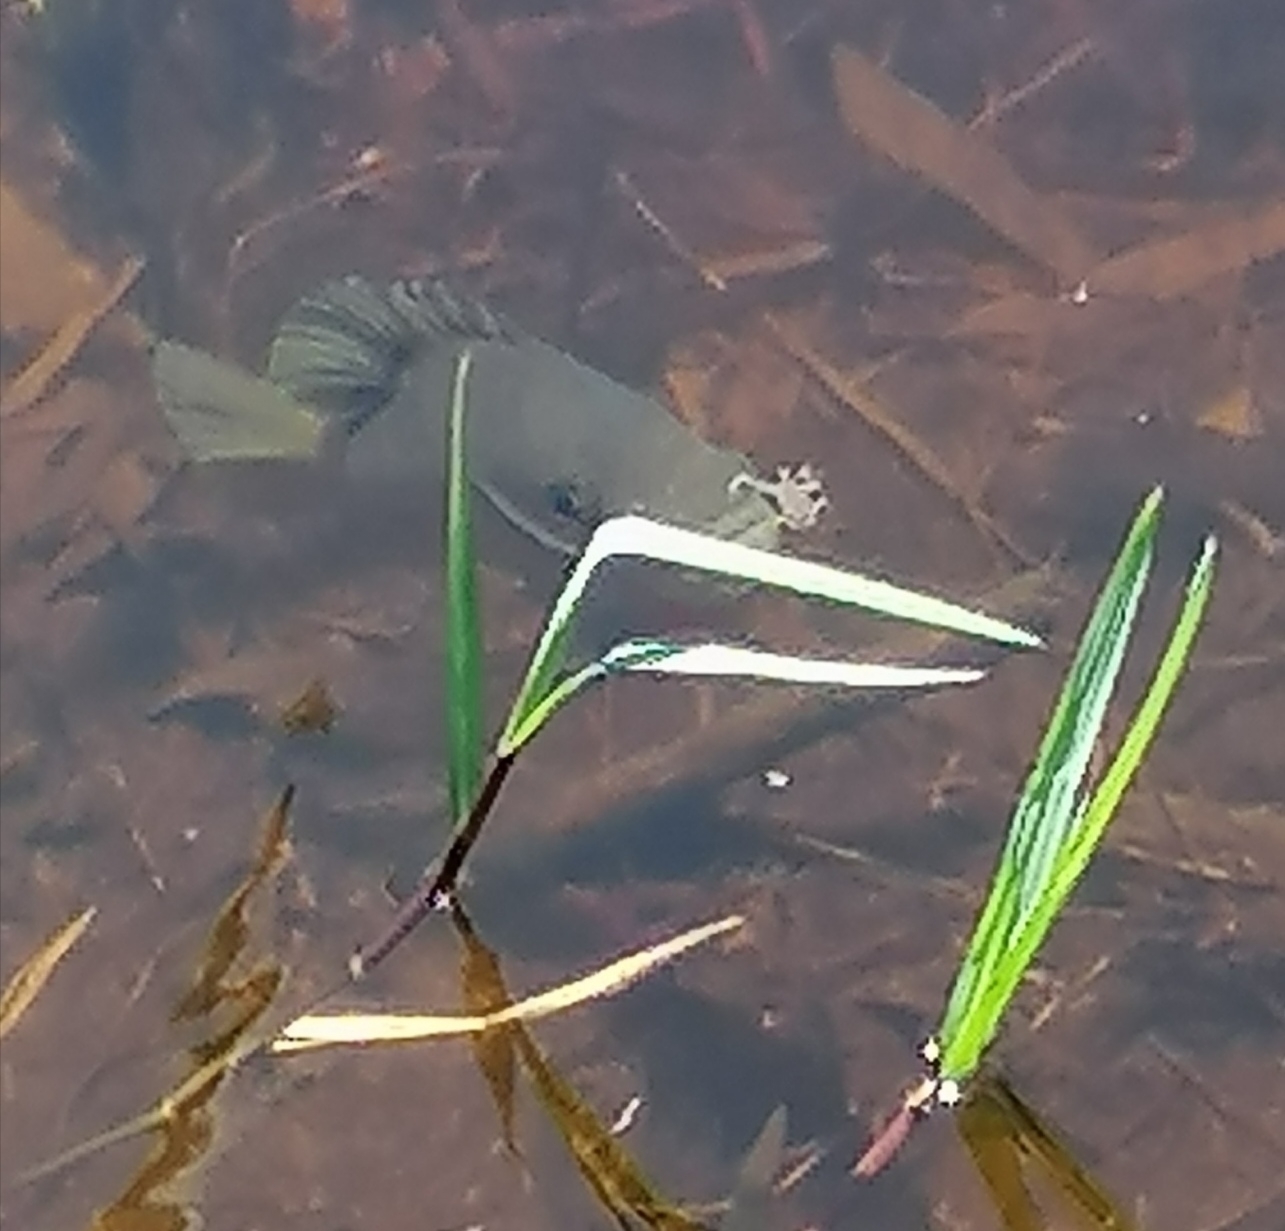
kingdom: Animalia
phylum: Chordata
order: Perciformes
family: Centrarchidae
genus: Lepomis
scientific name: Lepomis macrochirus
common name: Bluegill
